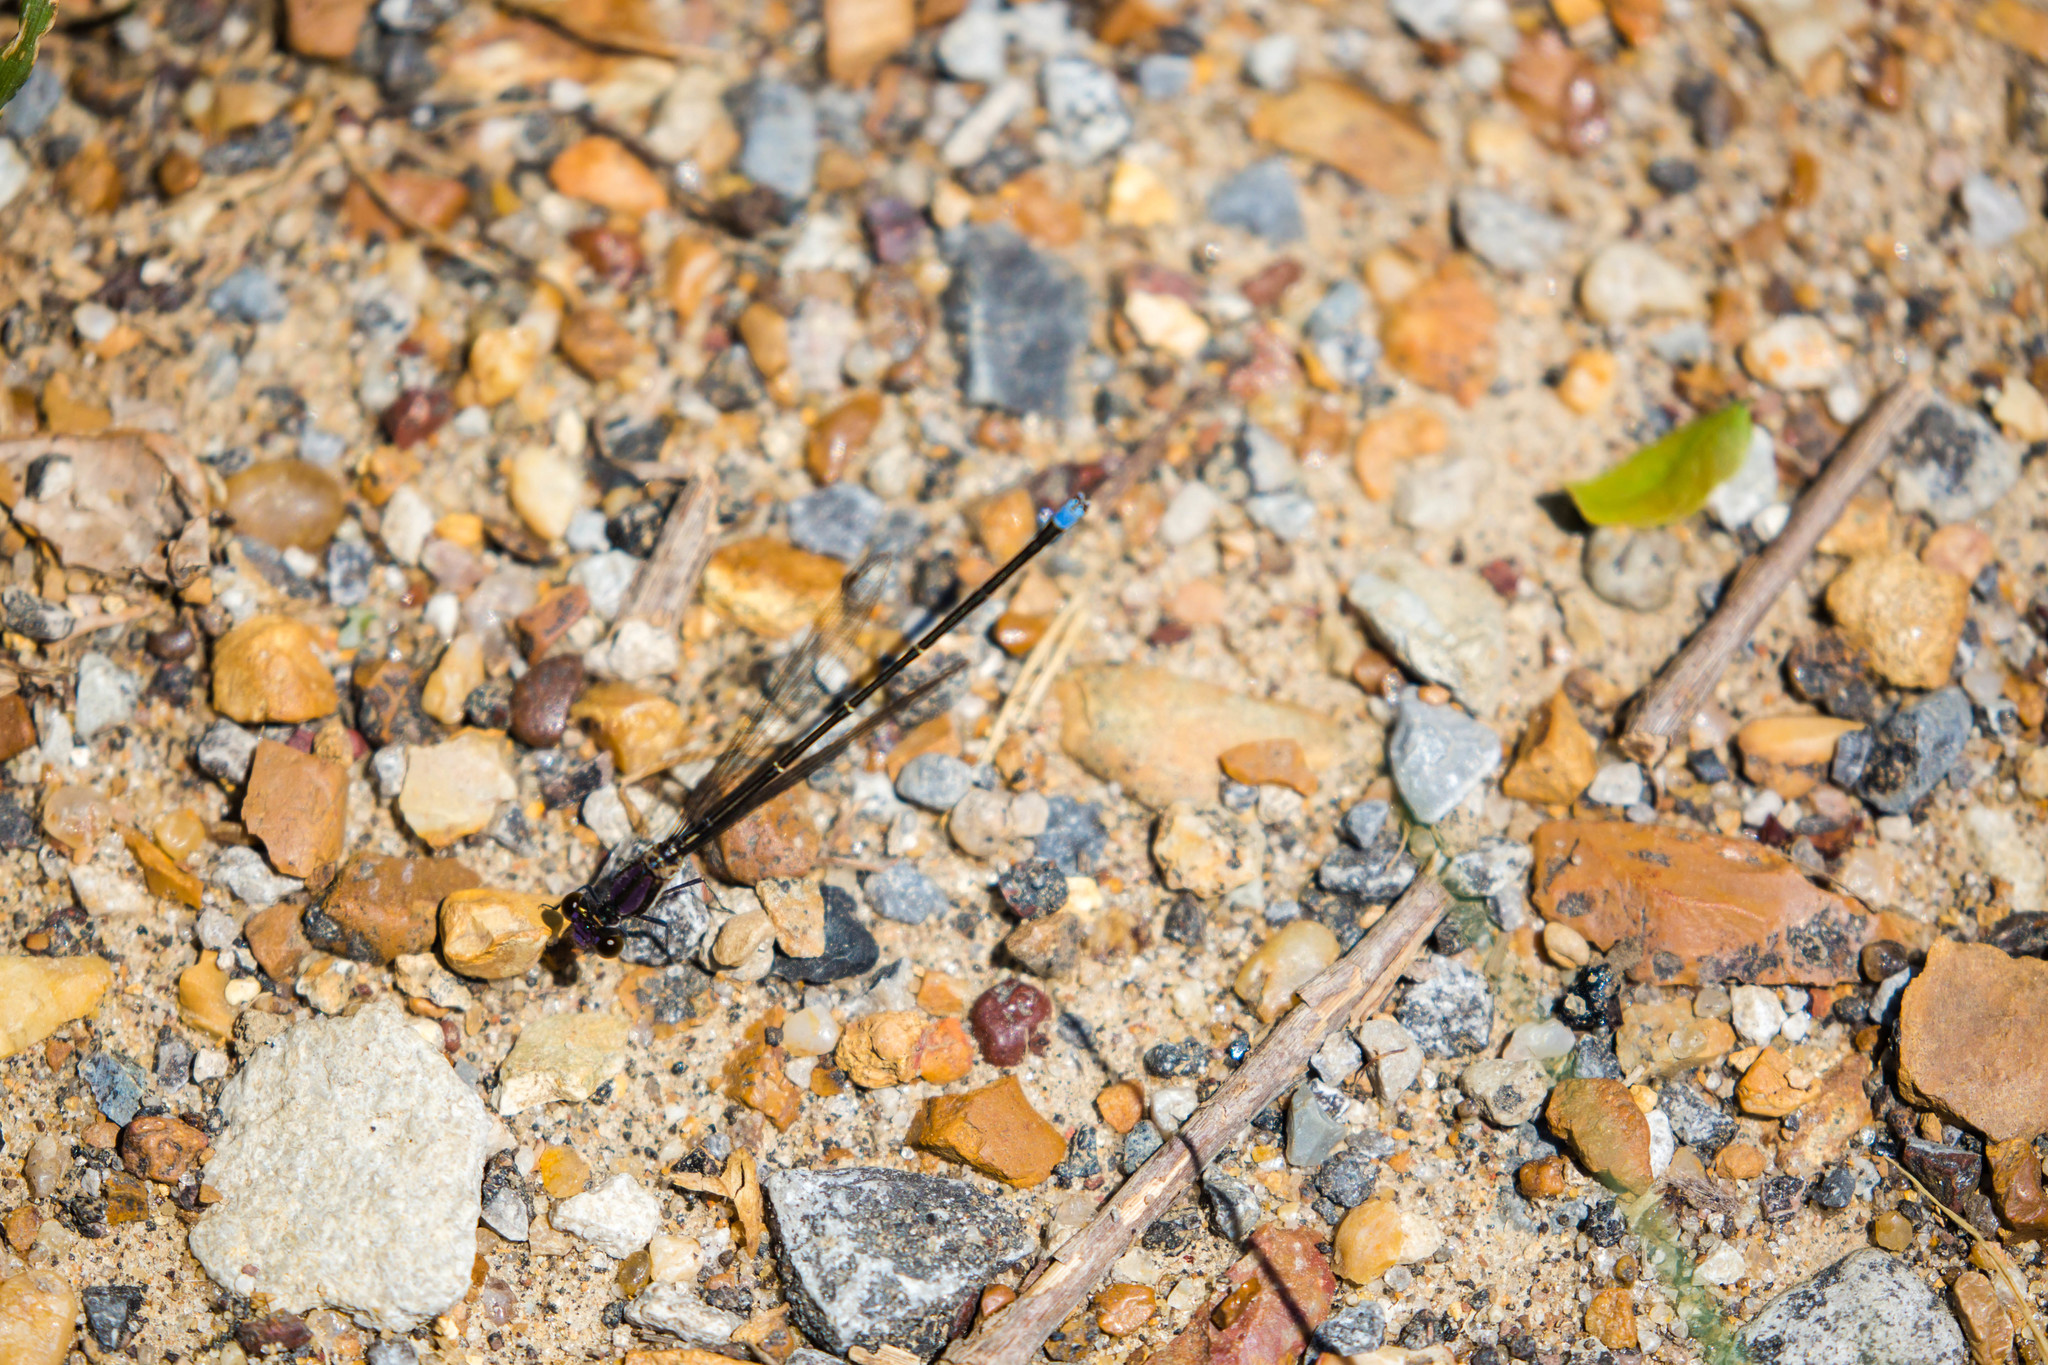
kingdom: Animalia
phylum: Arthropoda
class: Insecta
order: Odonata
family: Coenagrionidae
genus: Argia
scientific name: Argia tibialis
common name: Blue-tipped dancer
